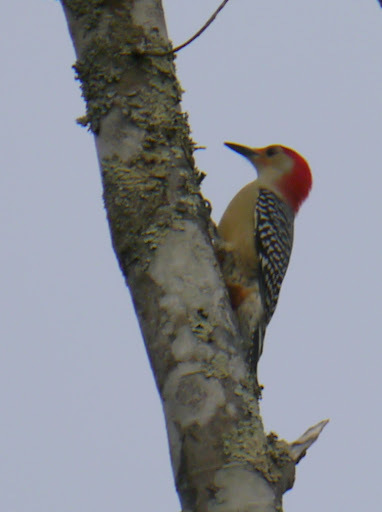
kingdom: Animalia
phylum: Chordata
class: Aves
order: Piciformes
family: Picidae
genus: Melanerpes
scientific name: Melanerpes carolinus
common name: Red-bellied woodpecker
